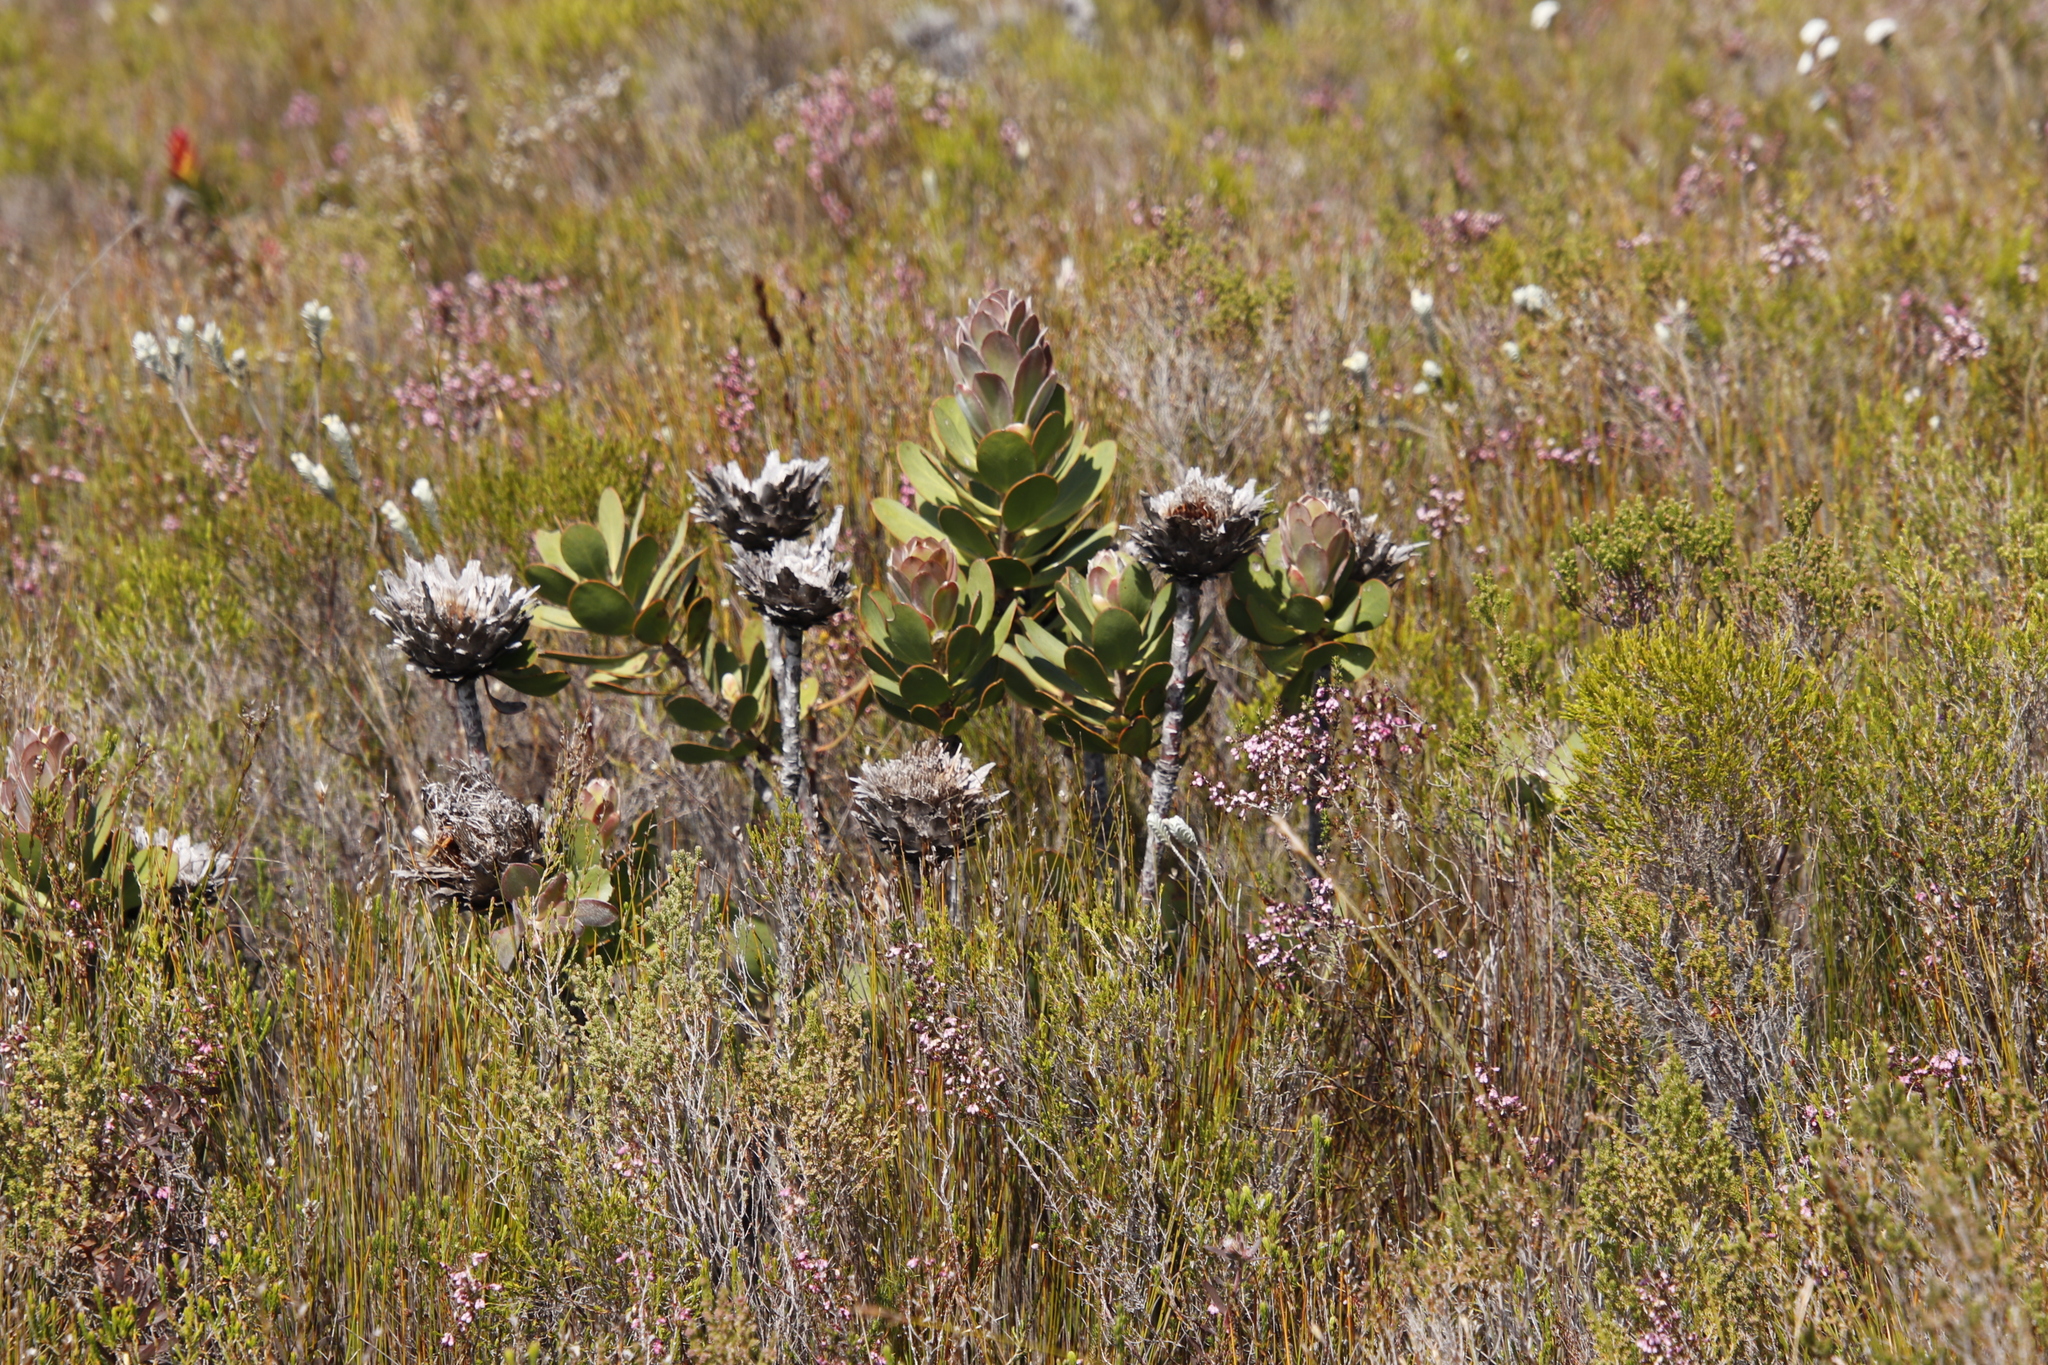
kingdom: Plantae
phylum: Tracheophyta
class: Magnoliopsida
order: Proteales
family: Proteaceae
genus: Protea
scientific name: Protea speciosa
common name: Brown-beard sugarbush
